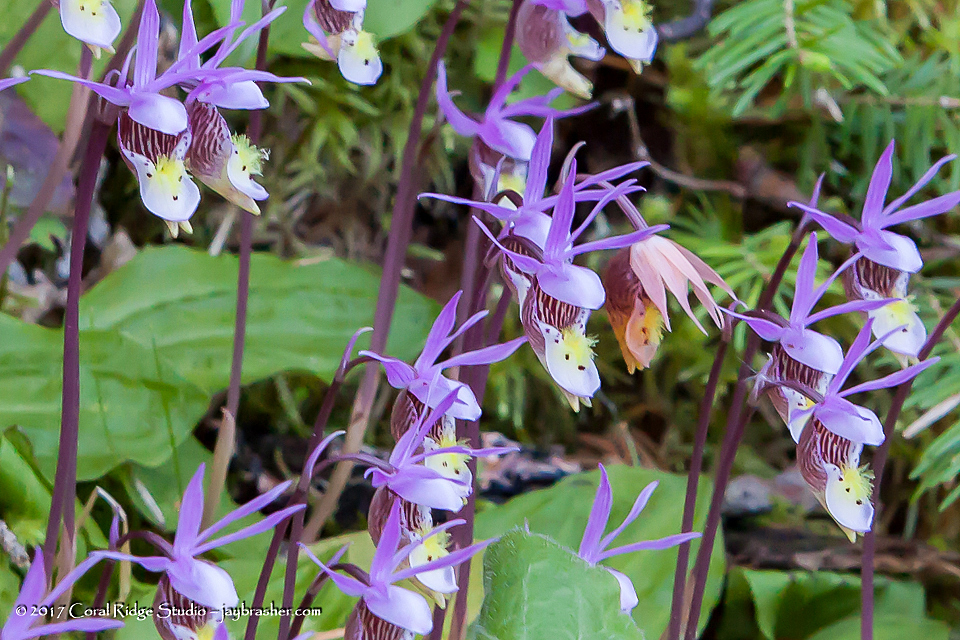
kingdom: Plantae
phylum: Tracheophyta
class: Liliopsida
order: Asparagales
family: Orchidaceae
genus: Calypso
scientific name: Calypso bulbosa
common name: Calypso
